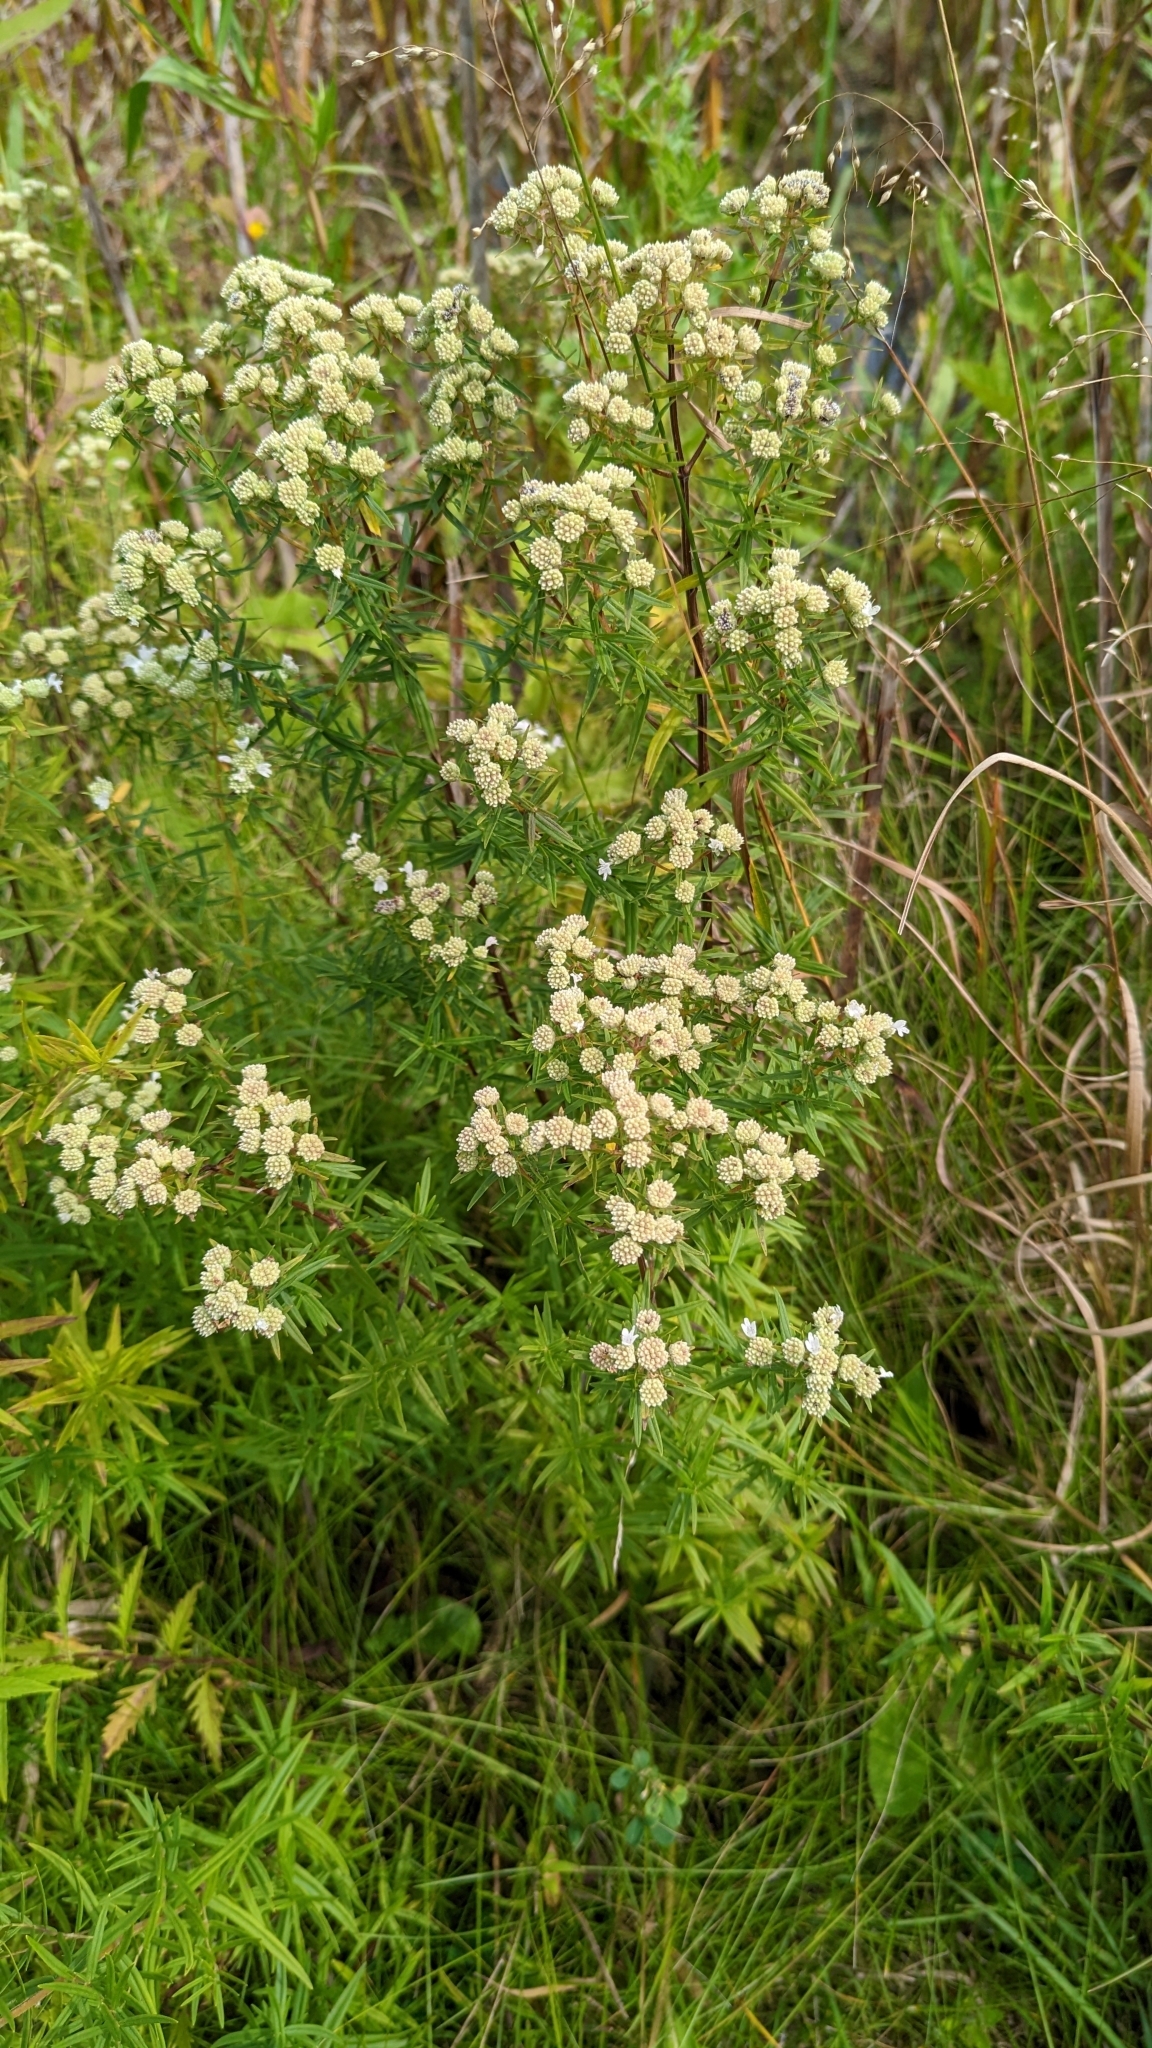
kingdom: Plantae
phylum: Tracheophyta
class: Magnoliopsida
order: Lamiales
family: Lamiaceae
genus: Pycnanthemum
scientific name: Pycnanthemum virginianum
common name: Virginia mountain-mint
